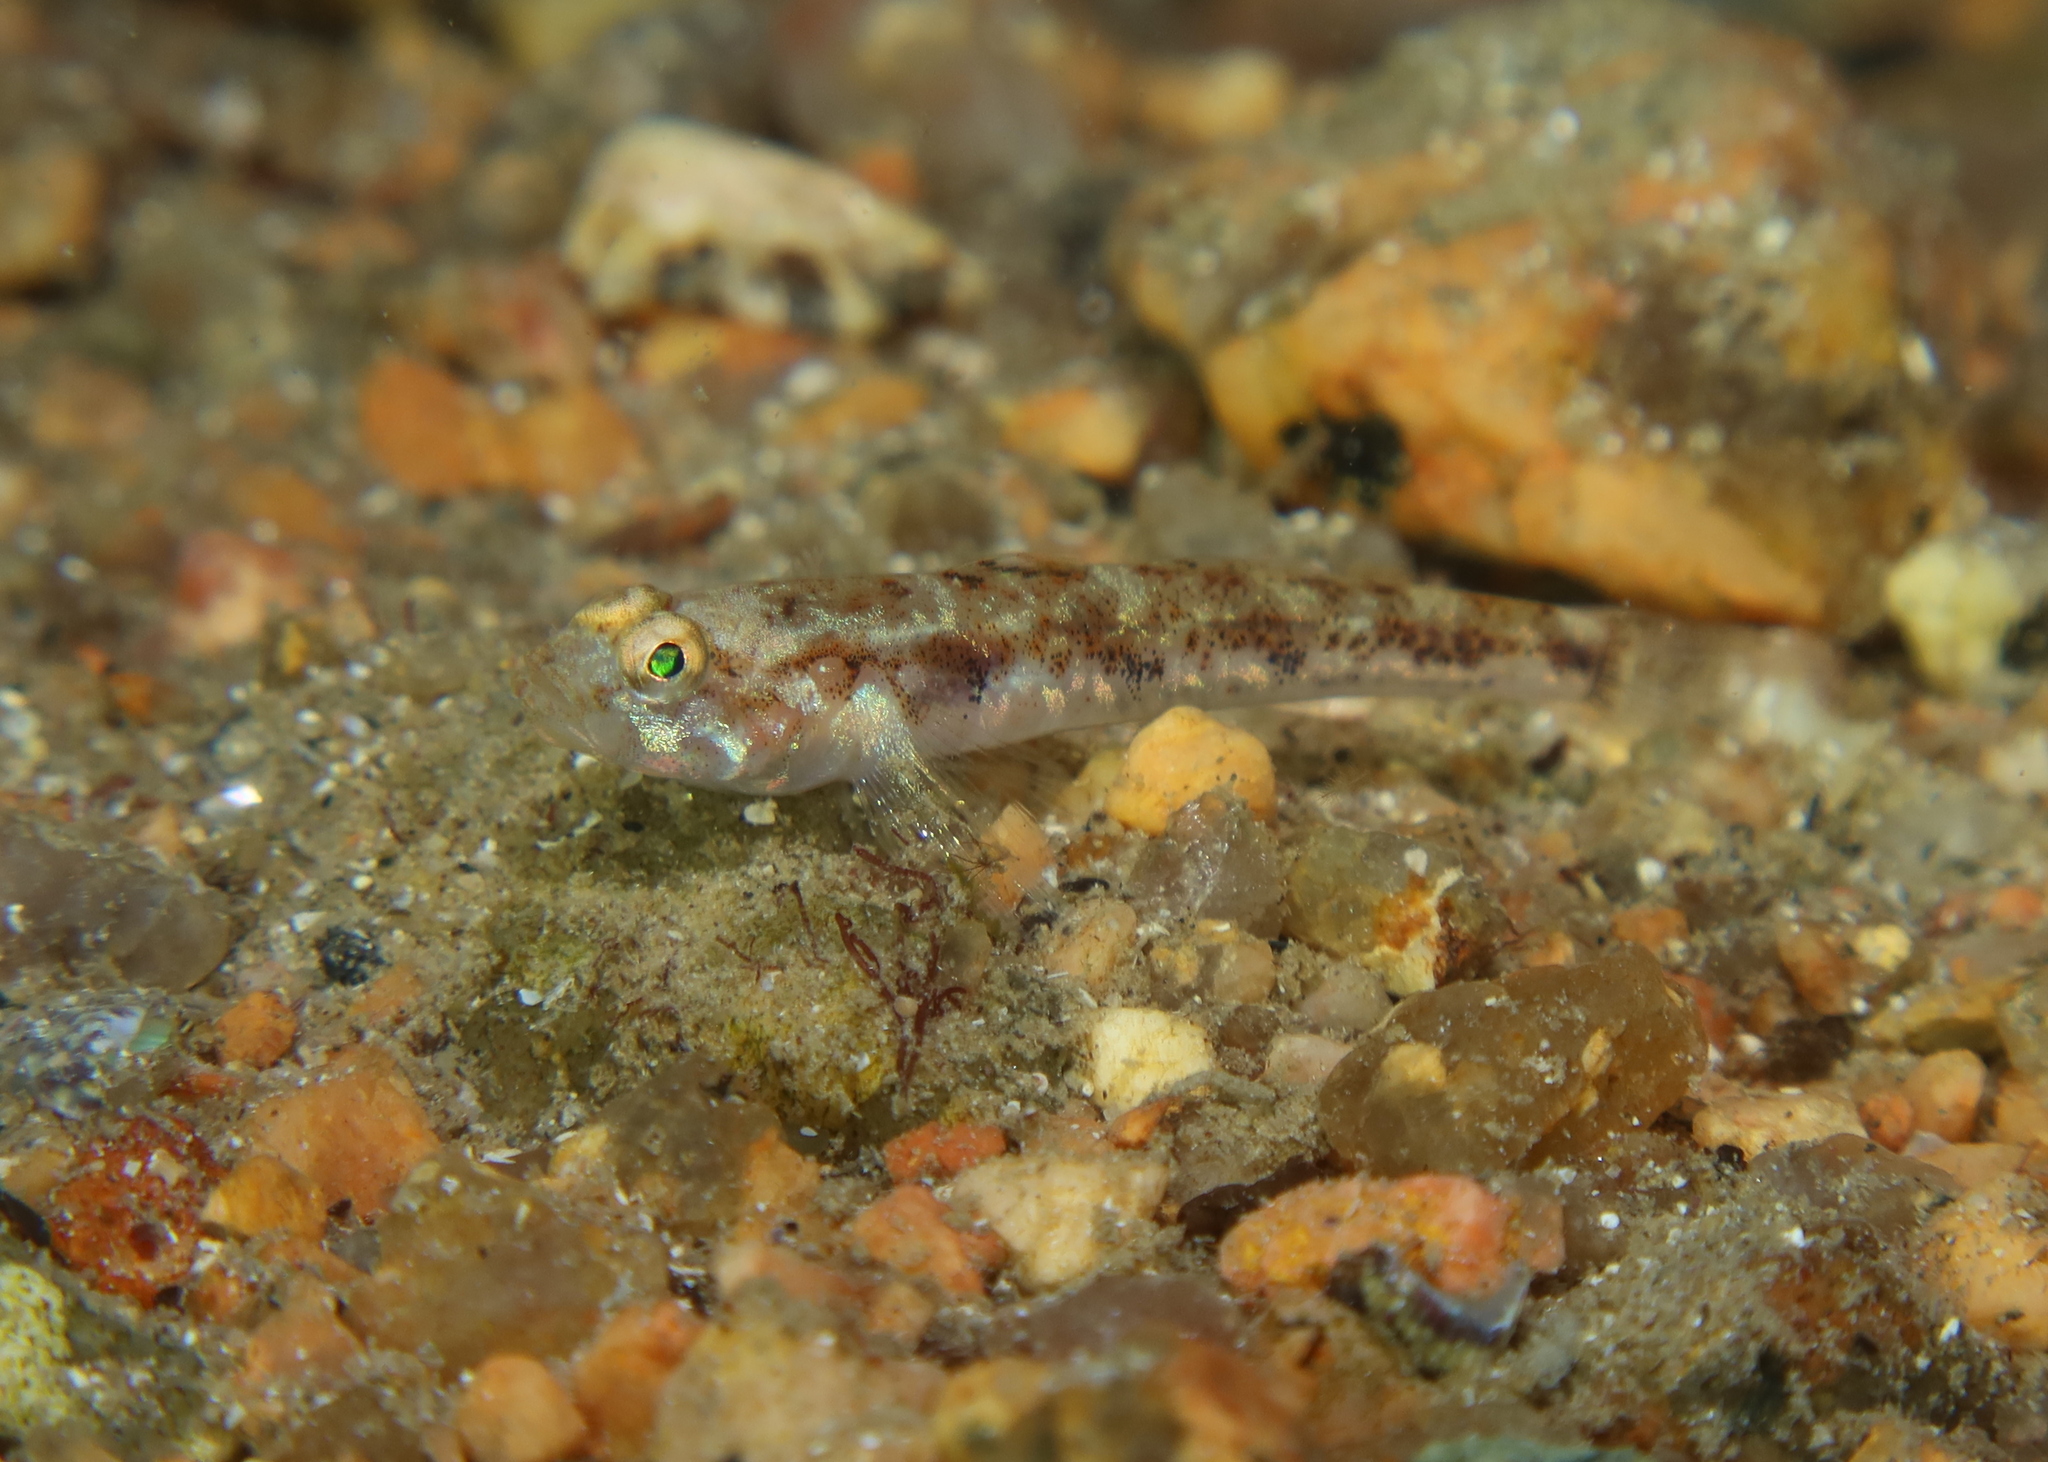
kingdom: Animalia
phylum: Chordata
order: Perciformes
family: Gobiidae
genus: Pomatoschistus
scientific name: Pomatoschistus pictus
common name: Painted goby
